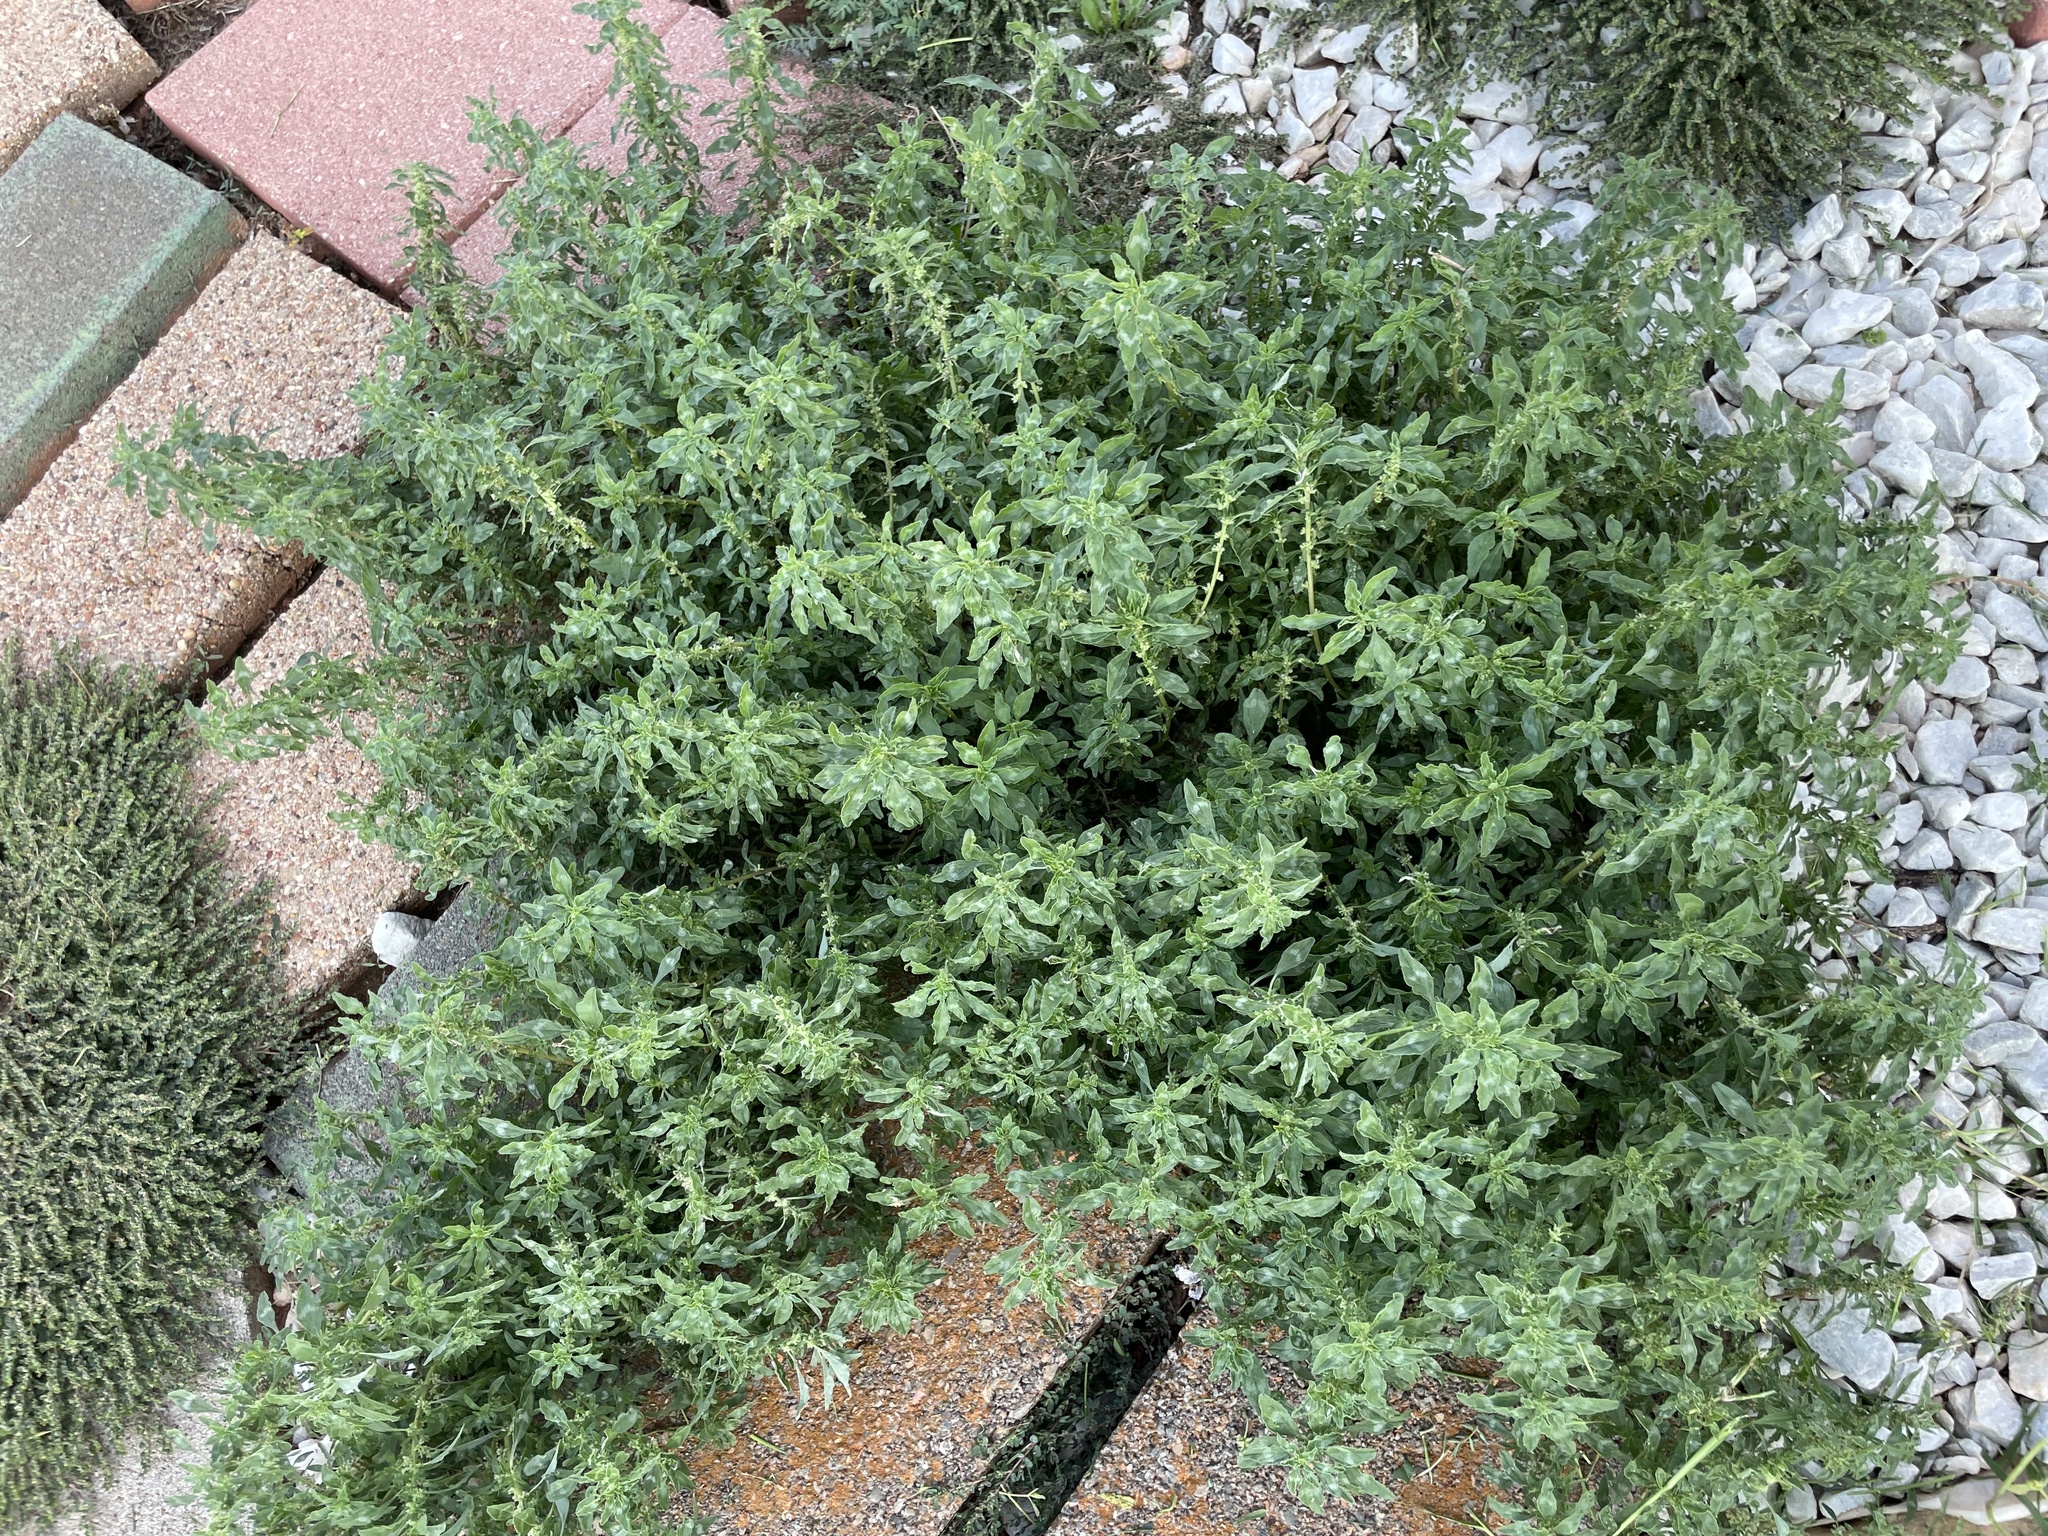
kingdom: Plantae
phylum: Tracheophyta
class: Magnoliopsida
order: Caryophyllales
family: Amaranthaceae
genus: Amaranthus
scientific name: Amaranthus albus
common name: White pigweed
